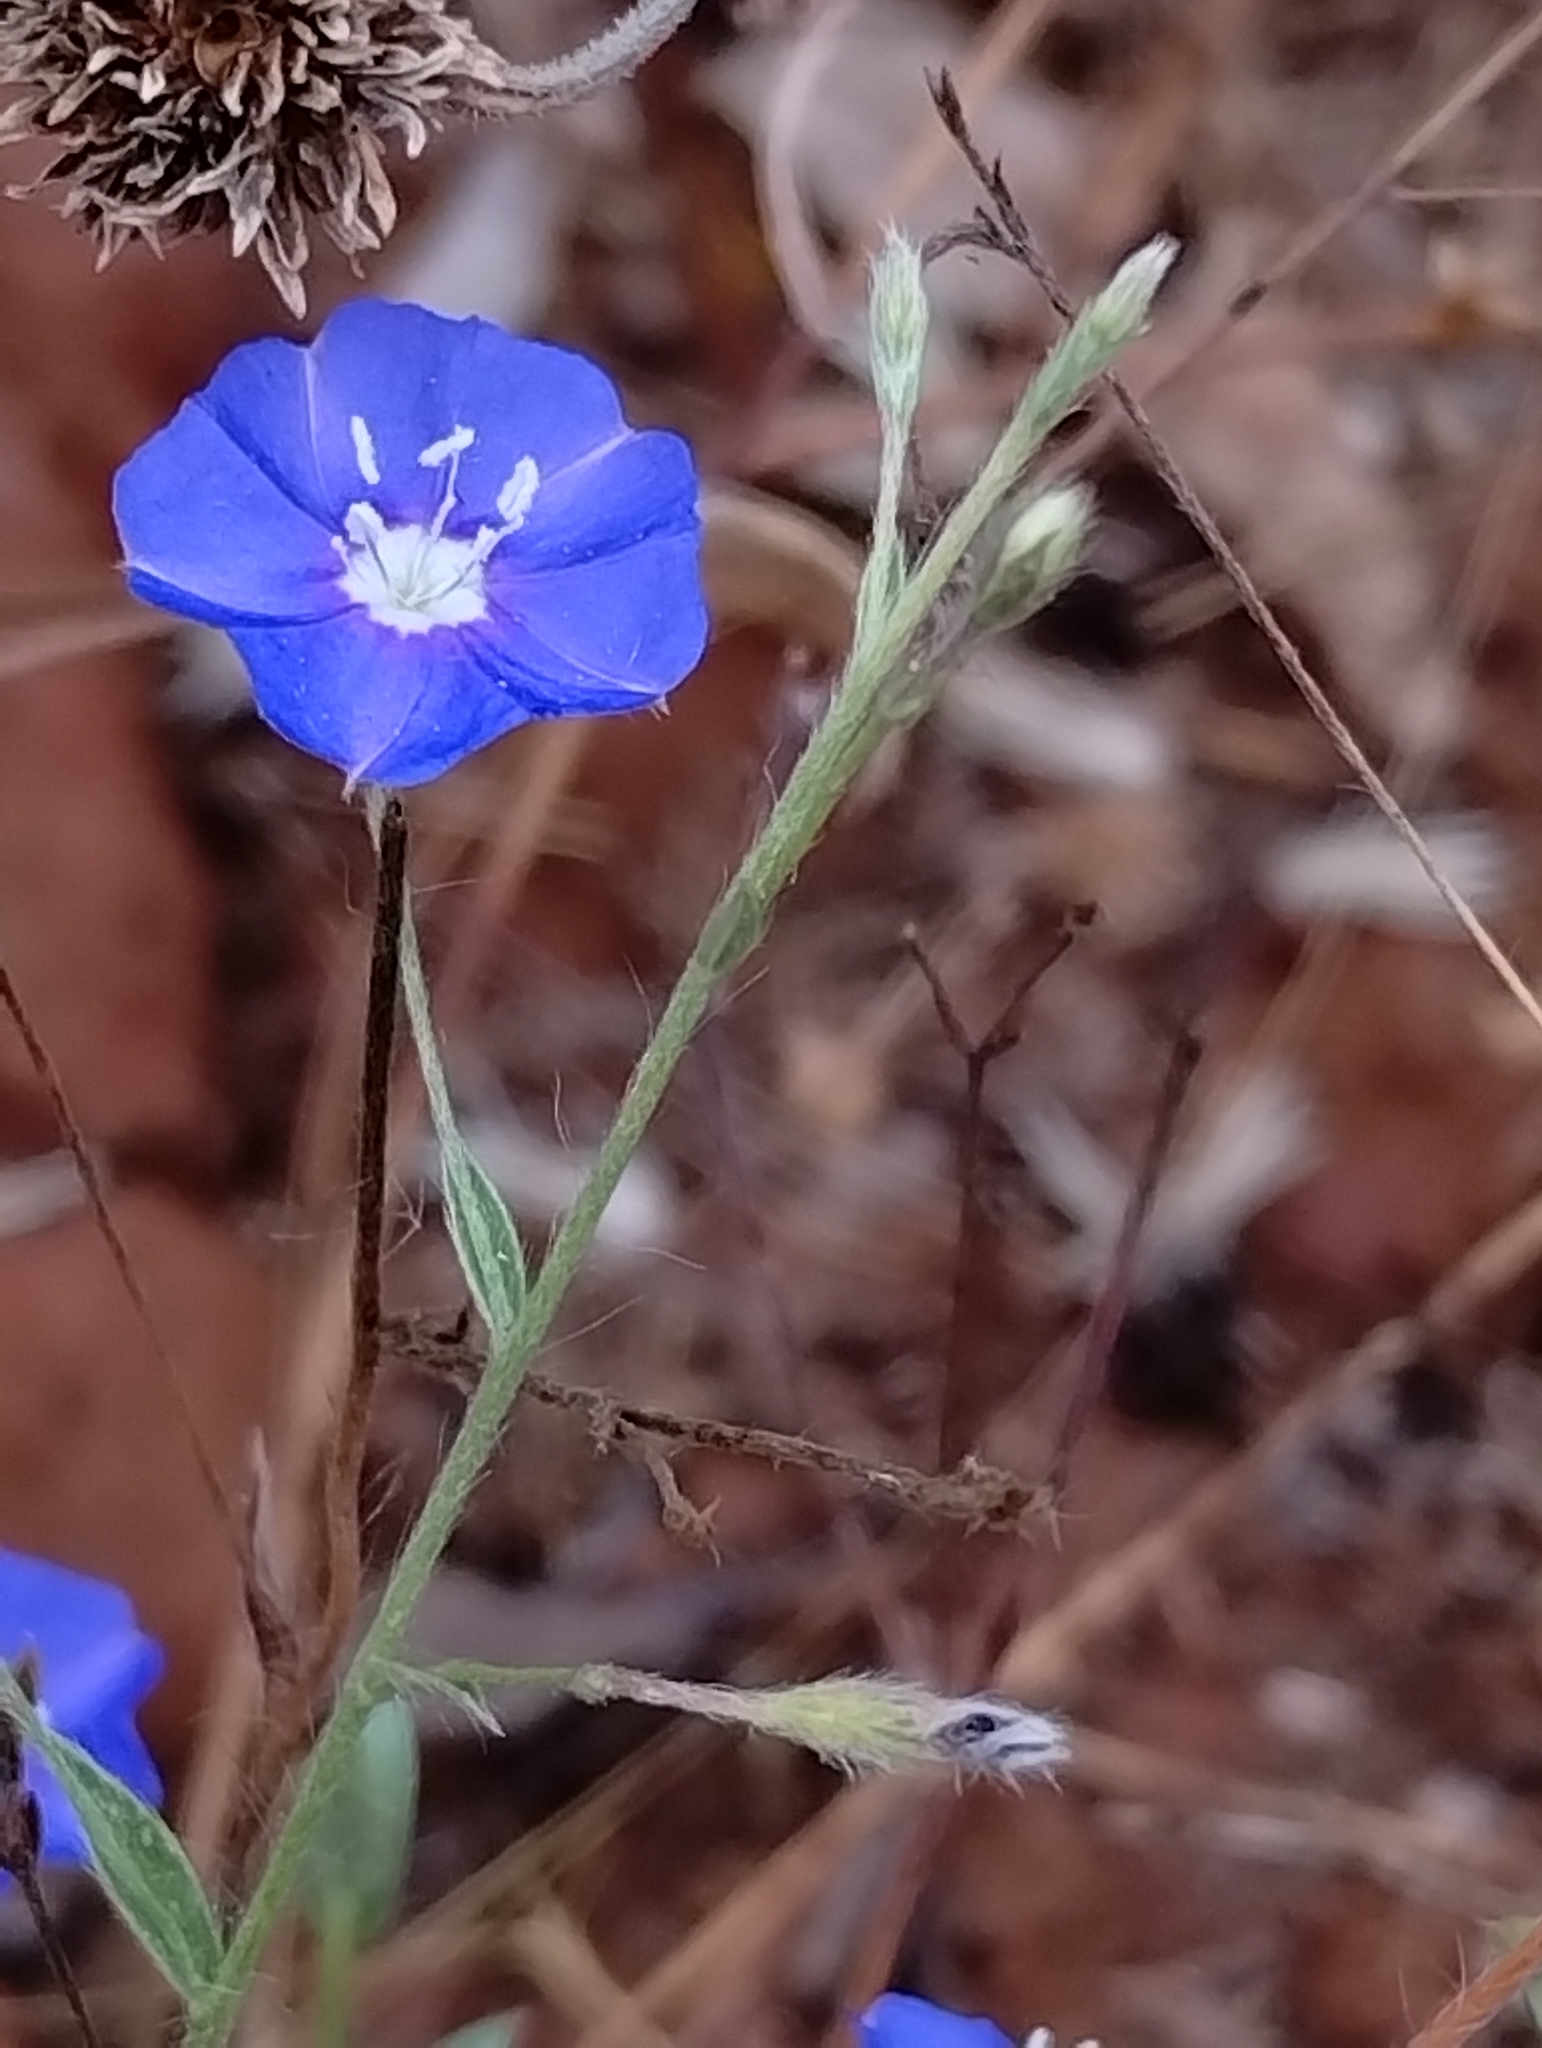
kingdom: Plantae
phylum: Tracheophyta
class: Magnoliopsida
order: Solanales
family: Convolvulaceae
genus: Evolvulus
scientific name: Evolvulus alsinoides
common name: Slender dwarf morning-glory
